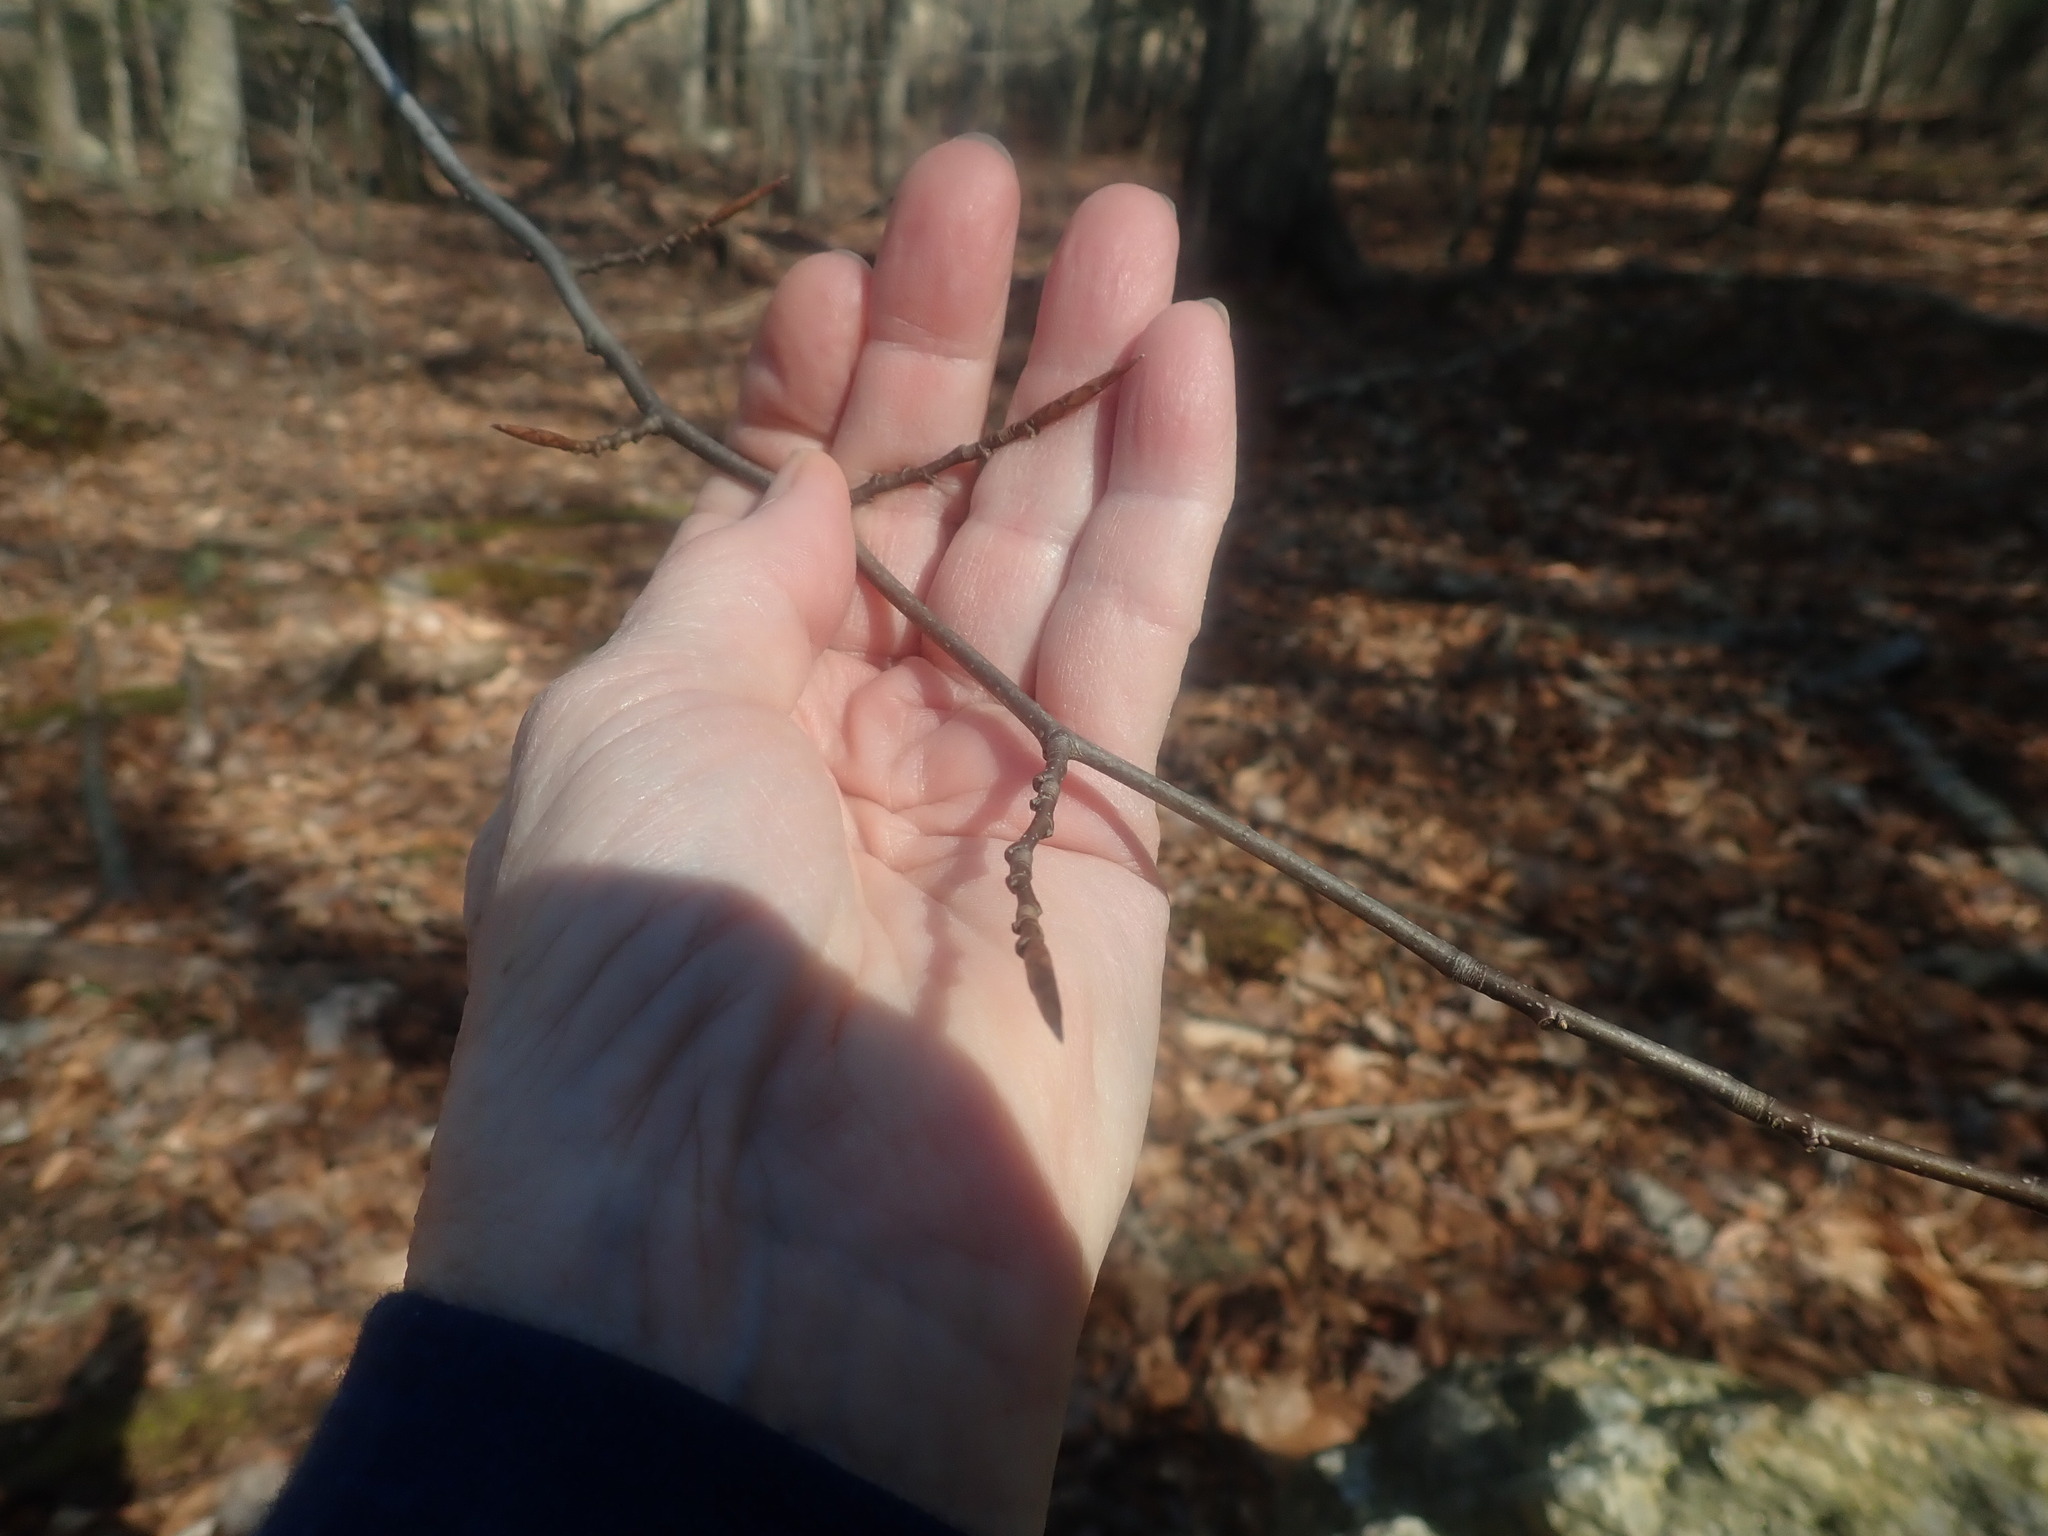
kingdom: Plantae
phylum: Tracheophyta
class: Magnoliopsida
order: Fagales
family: Fagaceae
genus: Fagus
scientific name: Fagus grandifolia
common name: American beech
